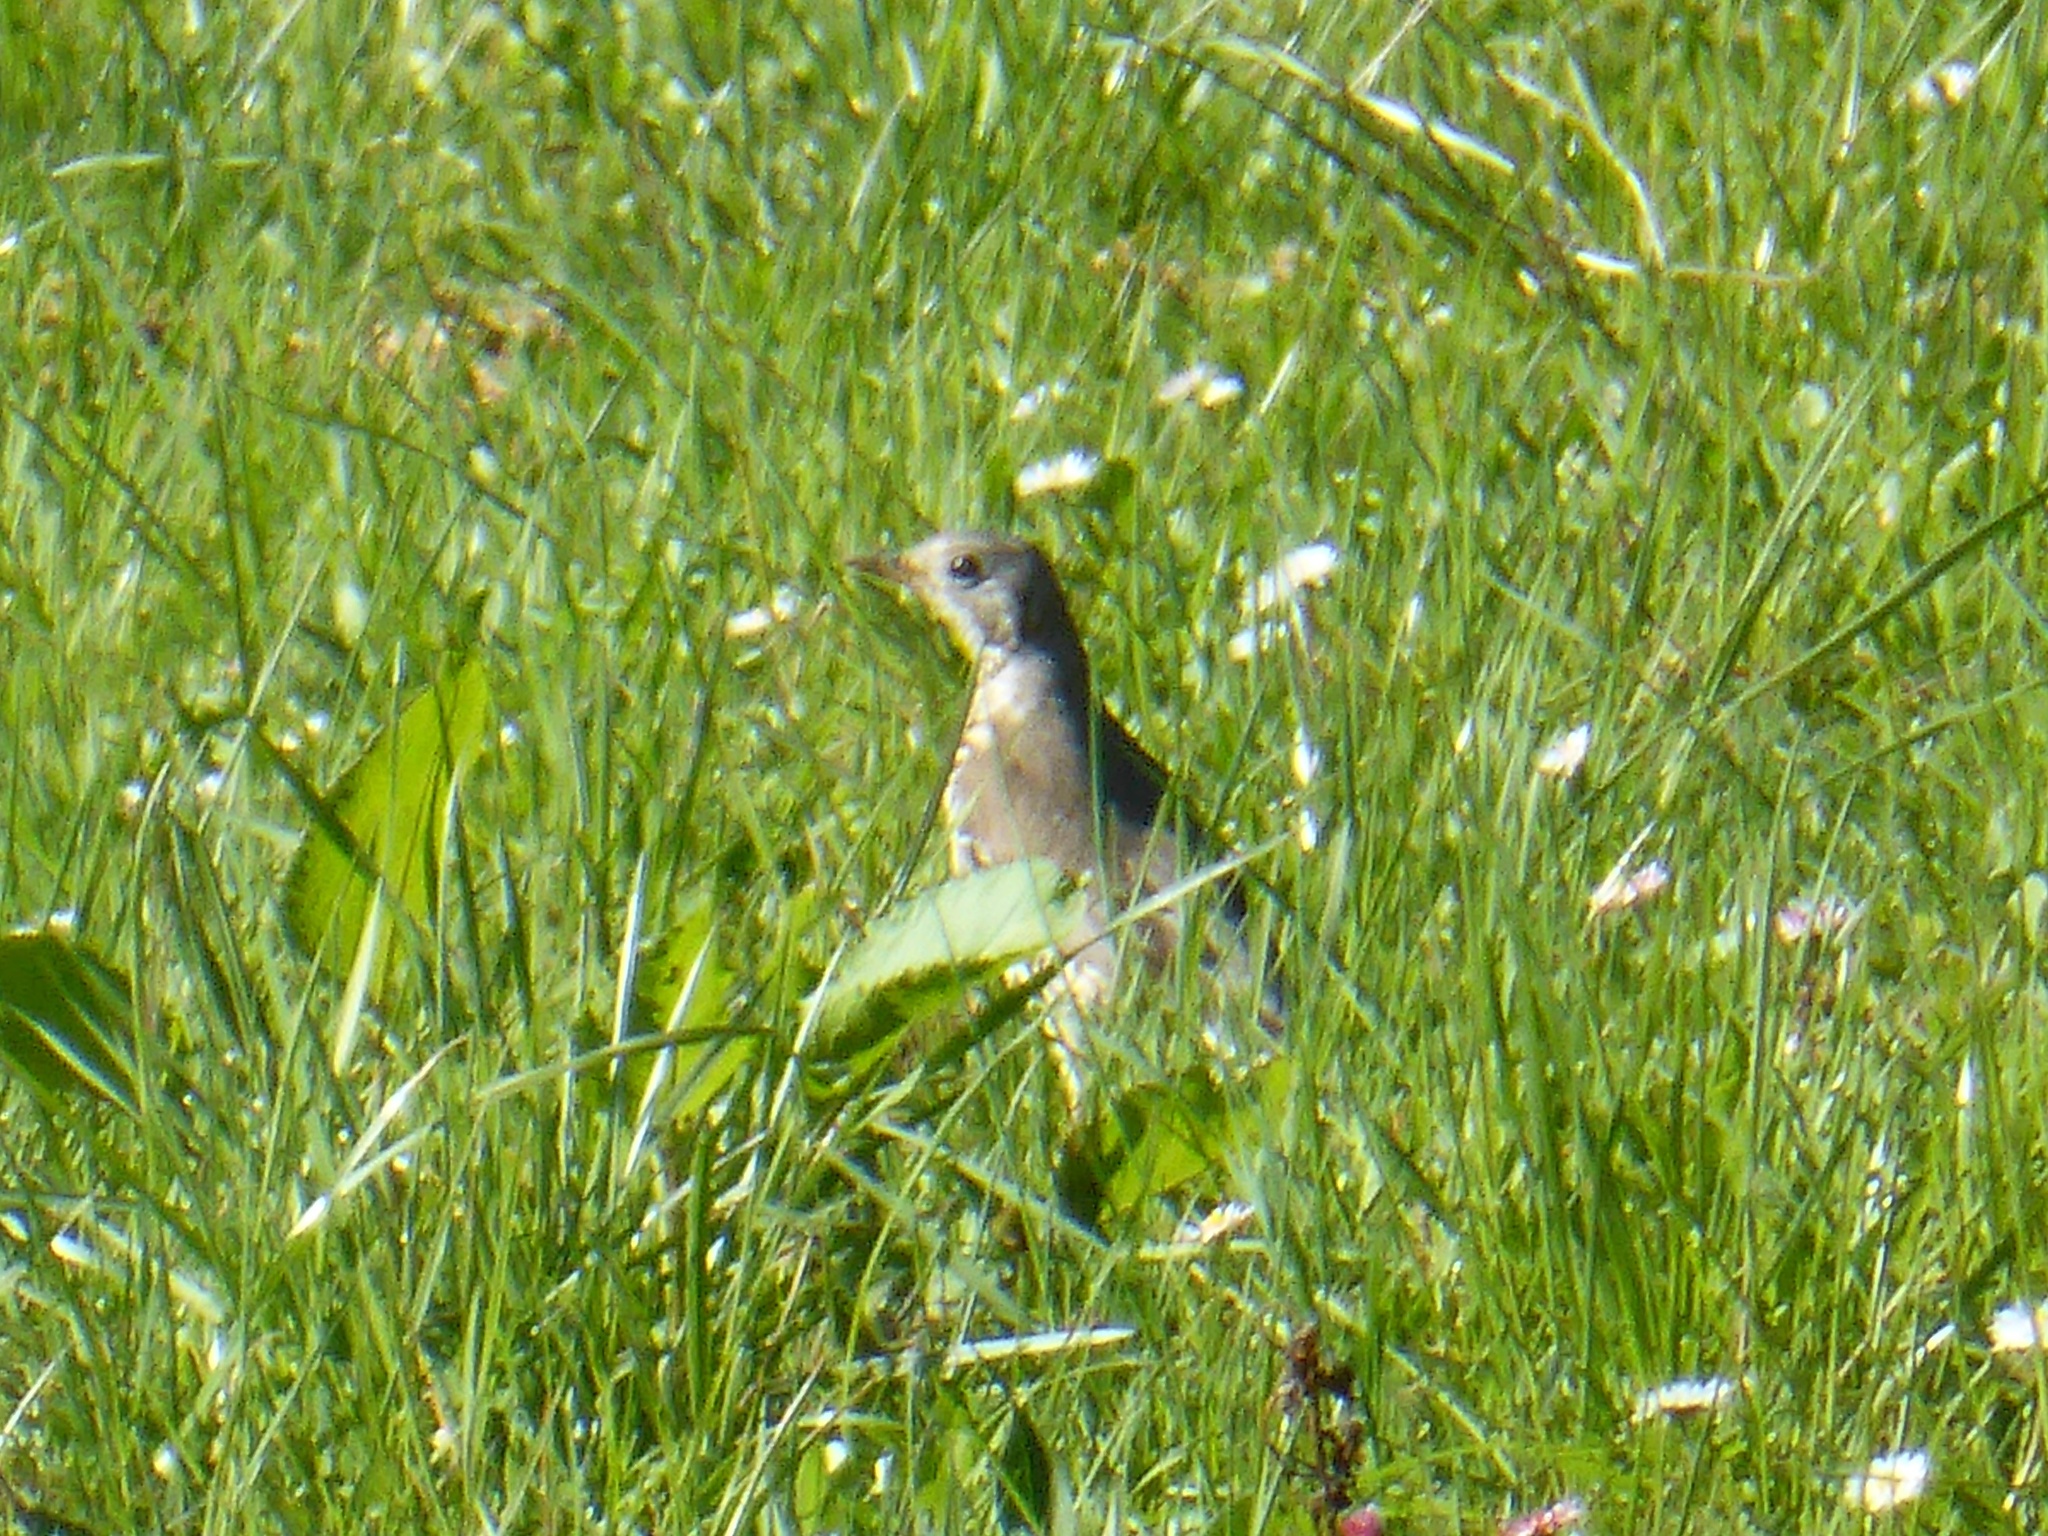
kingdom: Animalia
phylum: Chordata
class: Aves
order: Passeriformes
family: Turdidae
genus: Turdus
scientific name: Turdus viscivorus
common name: Mistle thrush
